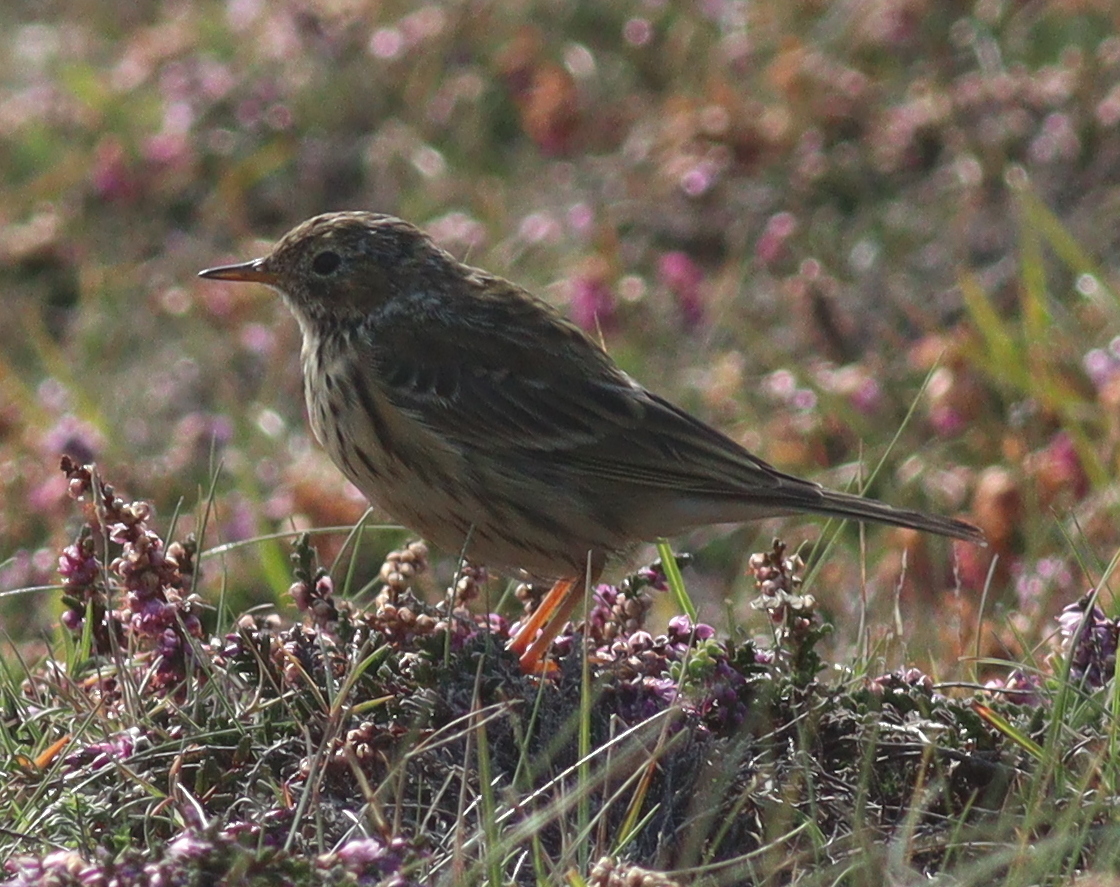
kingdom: Animalia
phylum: Chordata
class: Aves
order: Passeriformes
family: Motacillidae
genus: Anthus
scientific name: Anthus pratensis
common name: Meadow pipit
